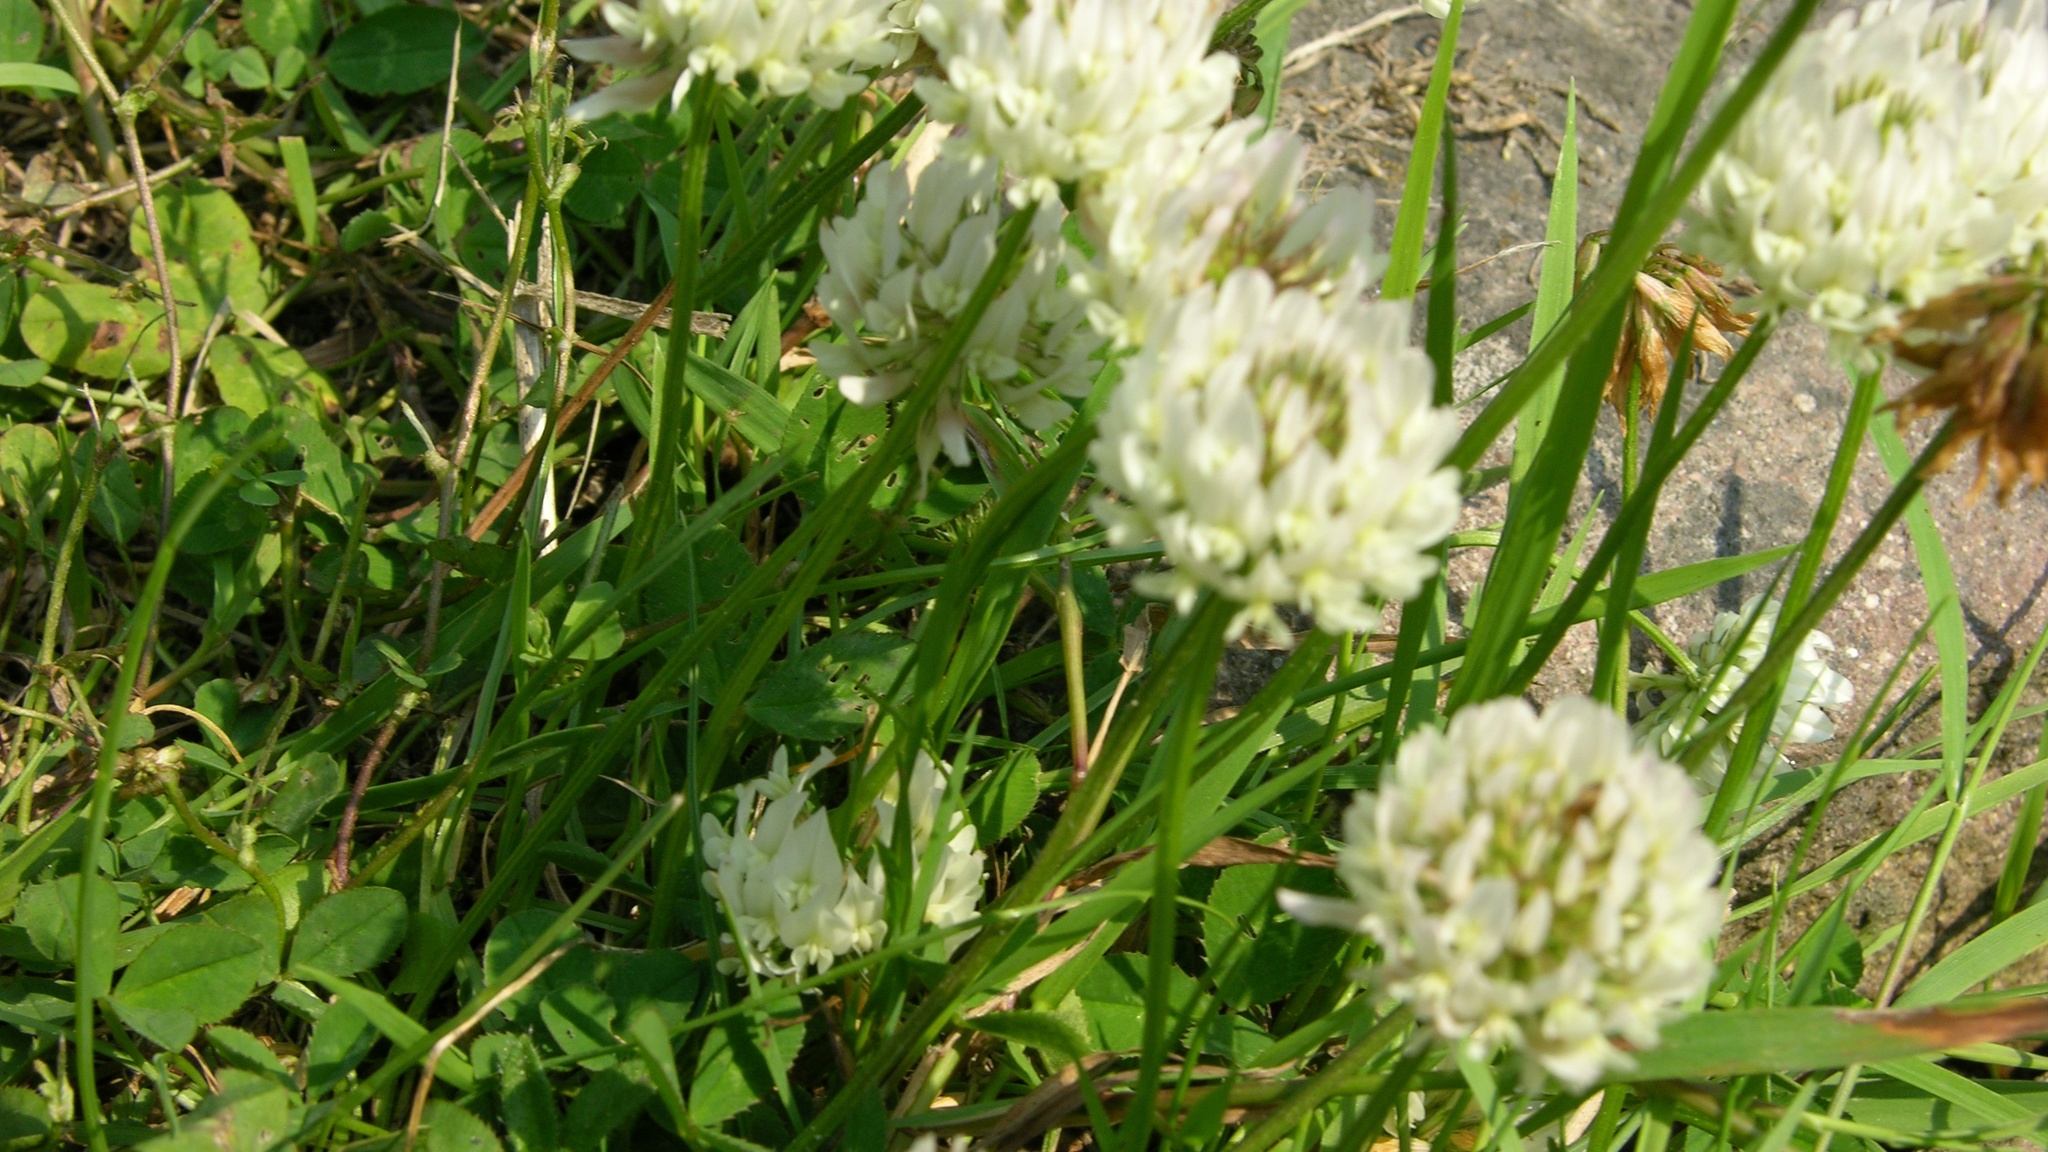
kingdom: Plantae
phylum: Tracheophyta
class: Magnoliopsida
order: Fabales
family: Fabaceae
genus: Trifolium
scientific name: Trifolium repens
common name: White clover
